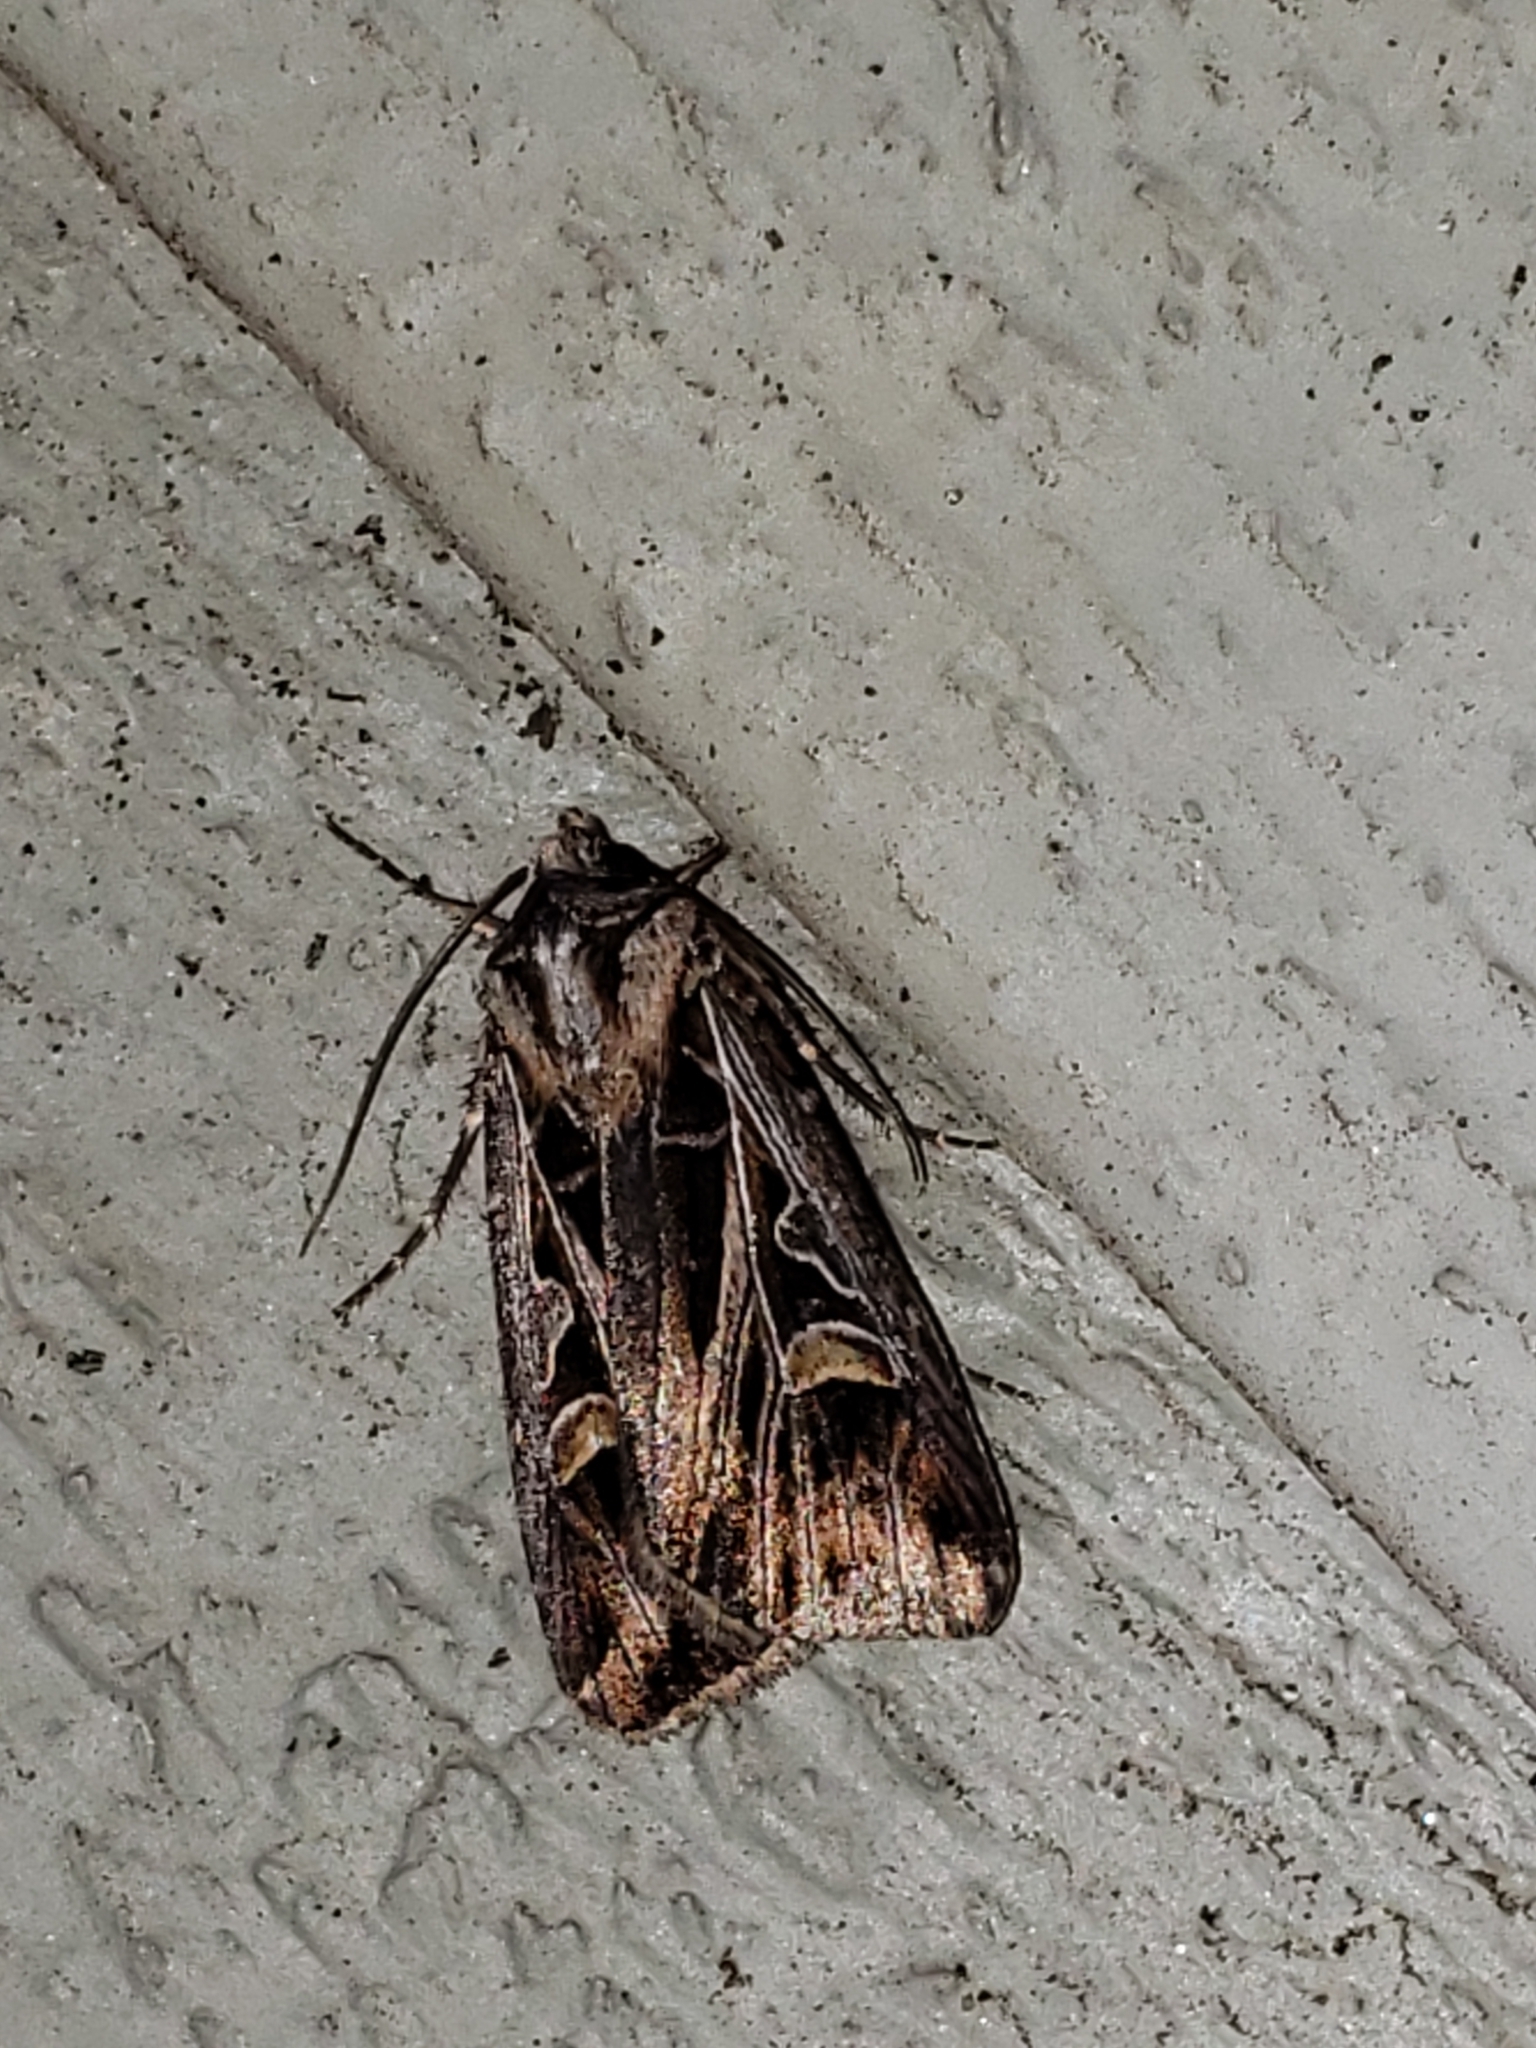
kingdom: Animalia
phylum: Arthropoda
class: Insecta
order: Lepidoptera
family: Noctuidae
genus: Feltia
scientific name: Feltia jaculifera
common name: Dingy cutworm moth
